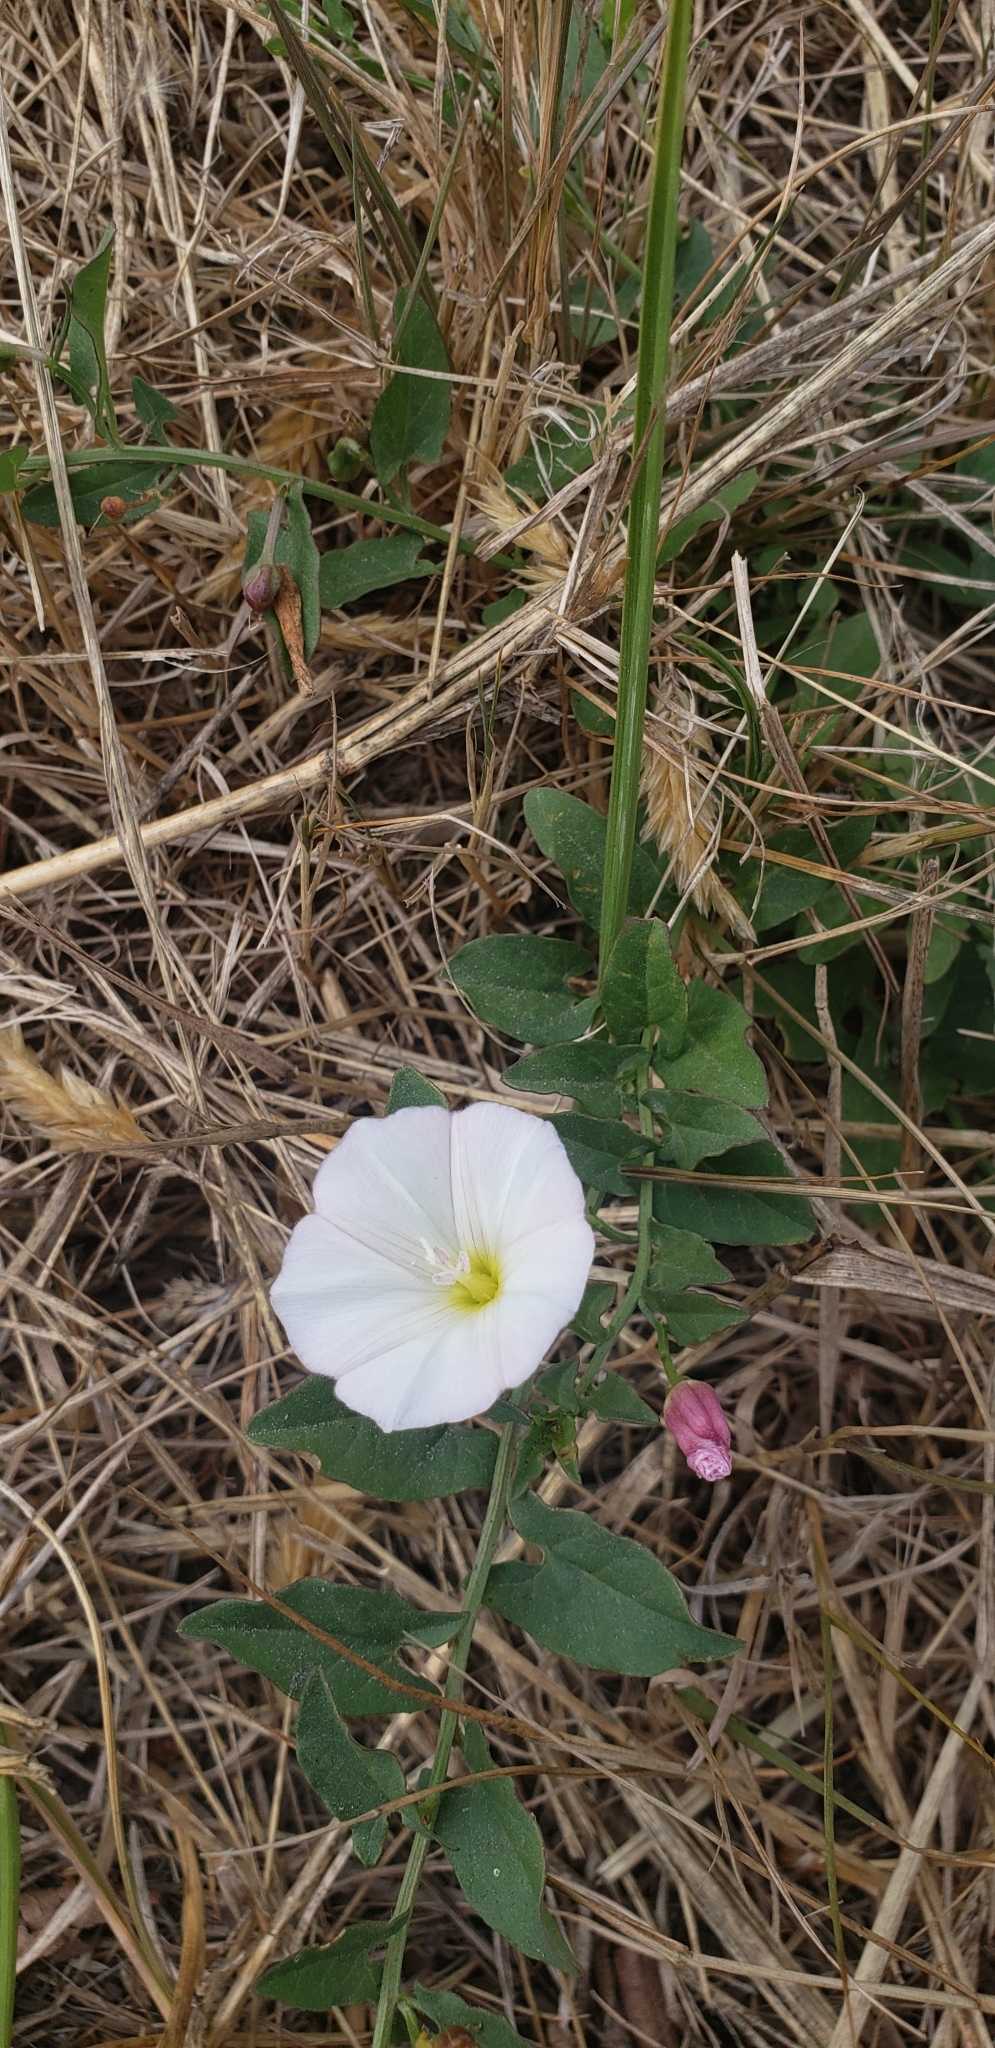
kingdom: Plantae
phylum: Tracheophyta
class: Magnoliopsida
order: Solanales
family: Convolvulaceae
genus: Convolvulus
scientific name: Convolvulus arvensis
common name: Field bindweed
